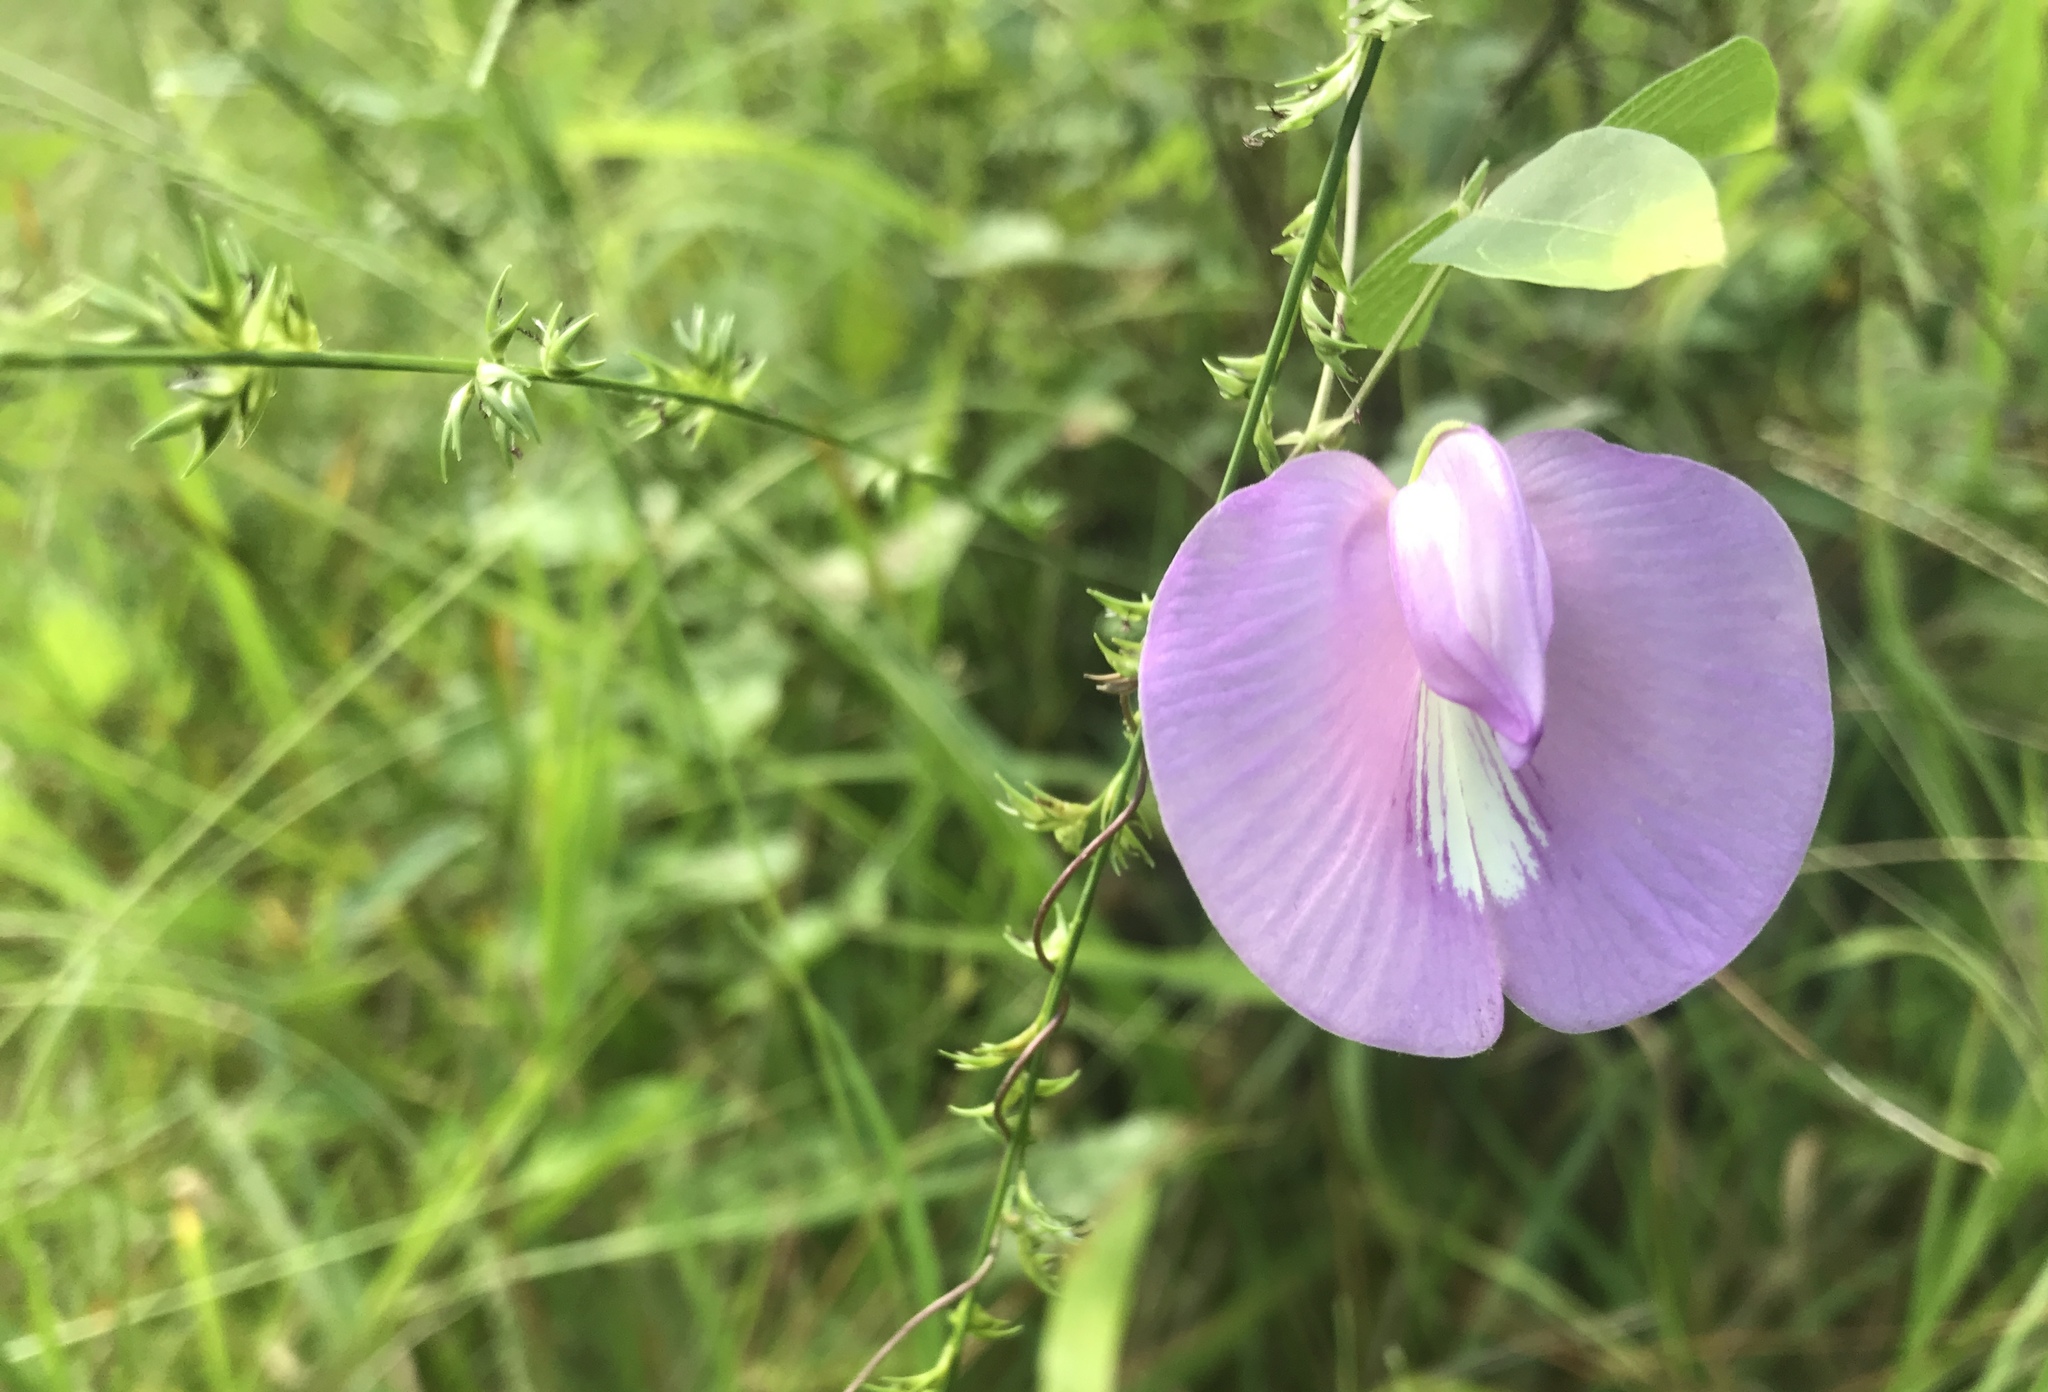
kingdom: Plantae
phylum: Tracheophyta
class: Magnoliopsida
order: Fabales
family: Fabaceae
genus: Centrosema
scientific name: Centrosema virginianum
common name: Butterfly-pea
